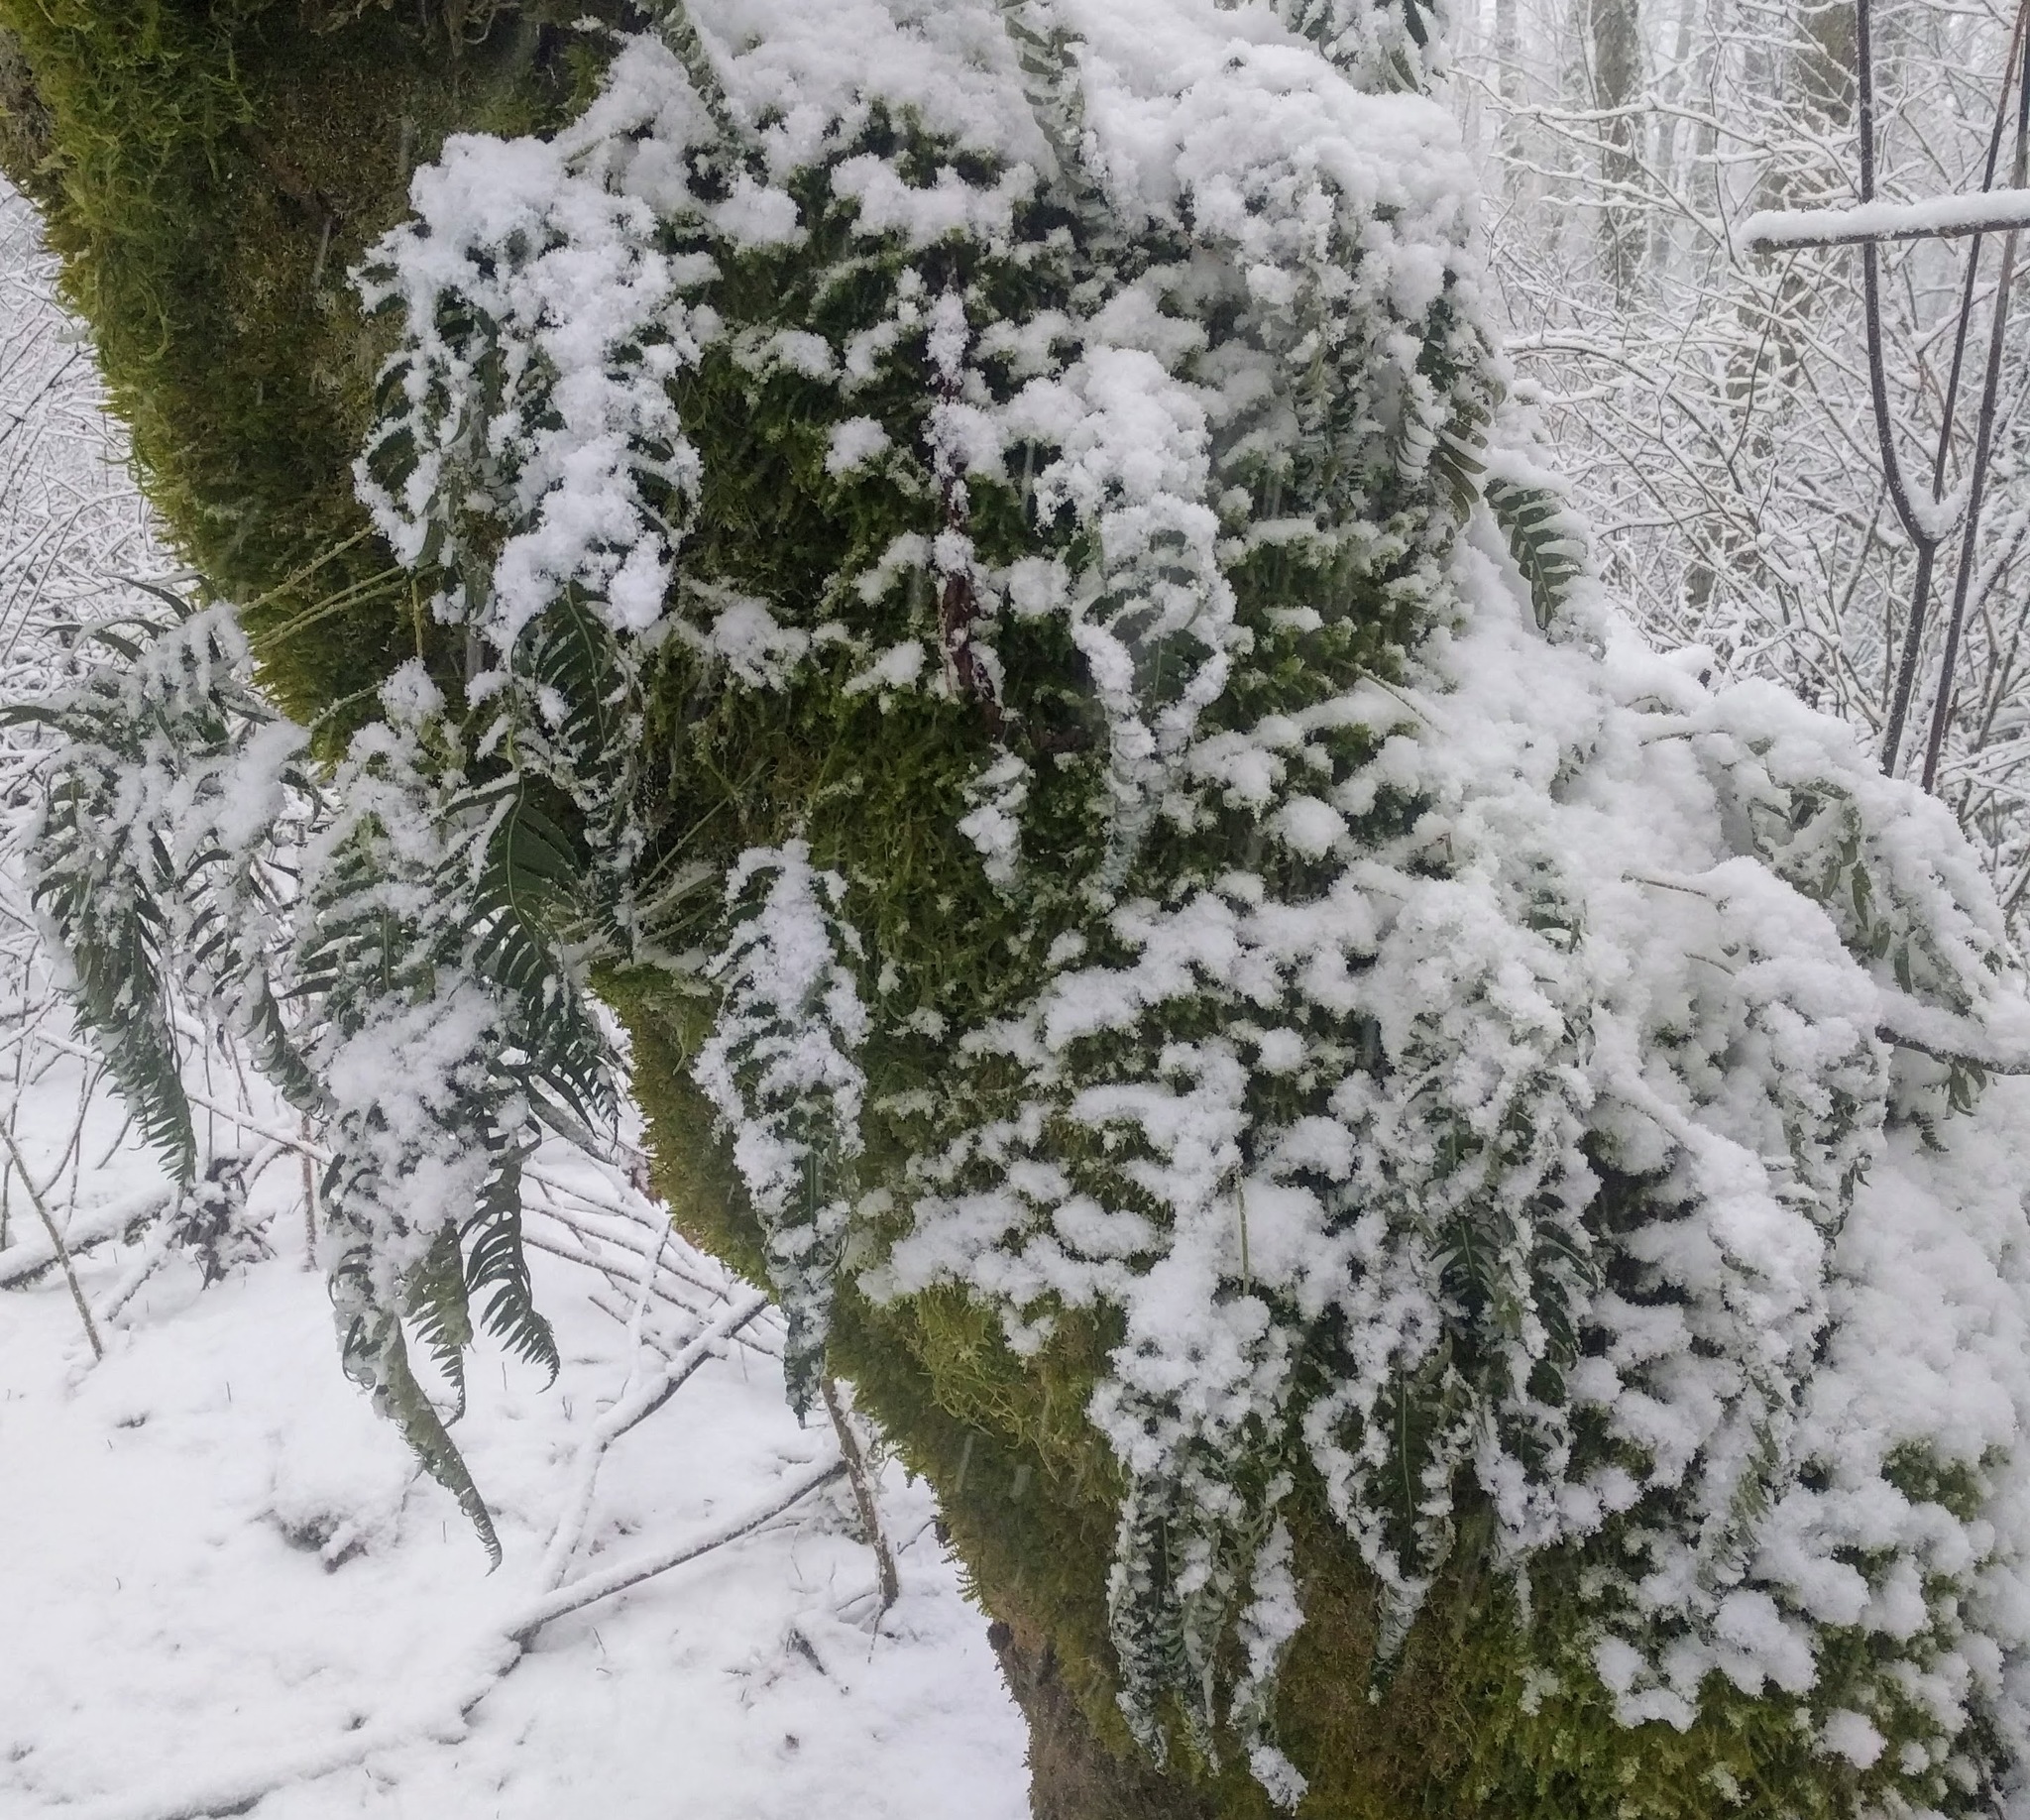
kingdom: Plantae
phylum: Tracheophyta
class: Polypodiopsida
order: Polypodiales
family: Polypodiaceae
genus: Polypodium
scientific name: Polypodium glycyrrhiza
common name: Licorice fern
